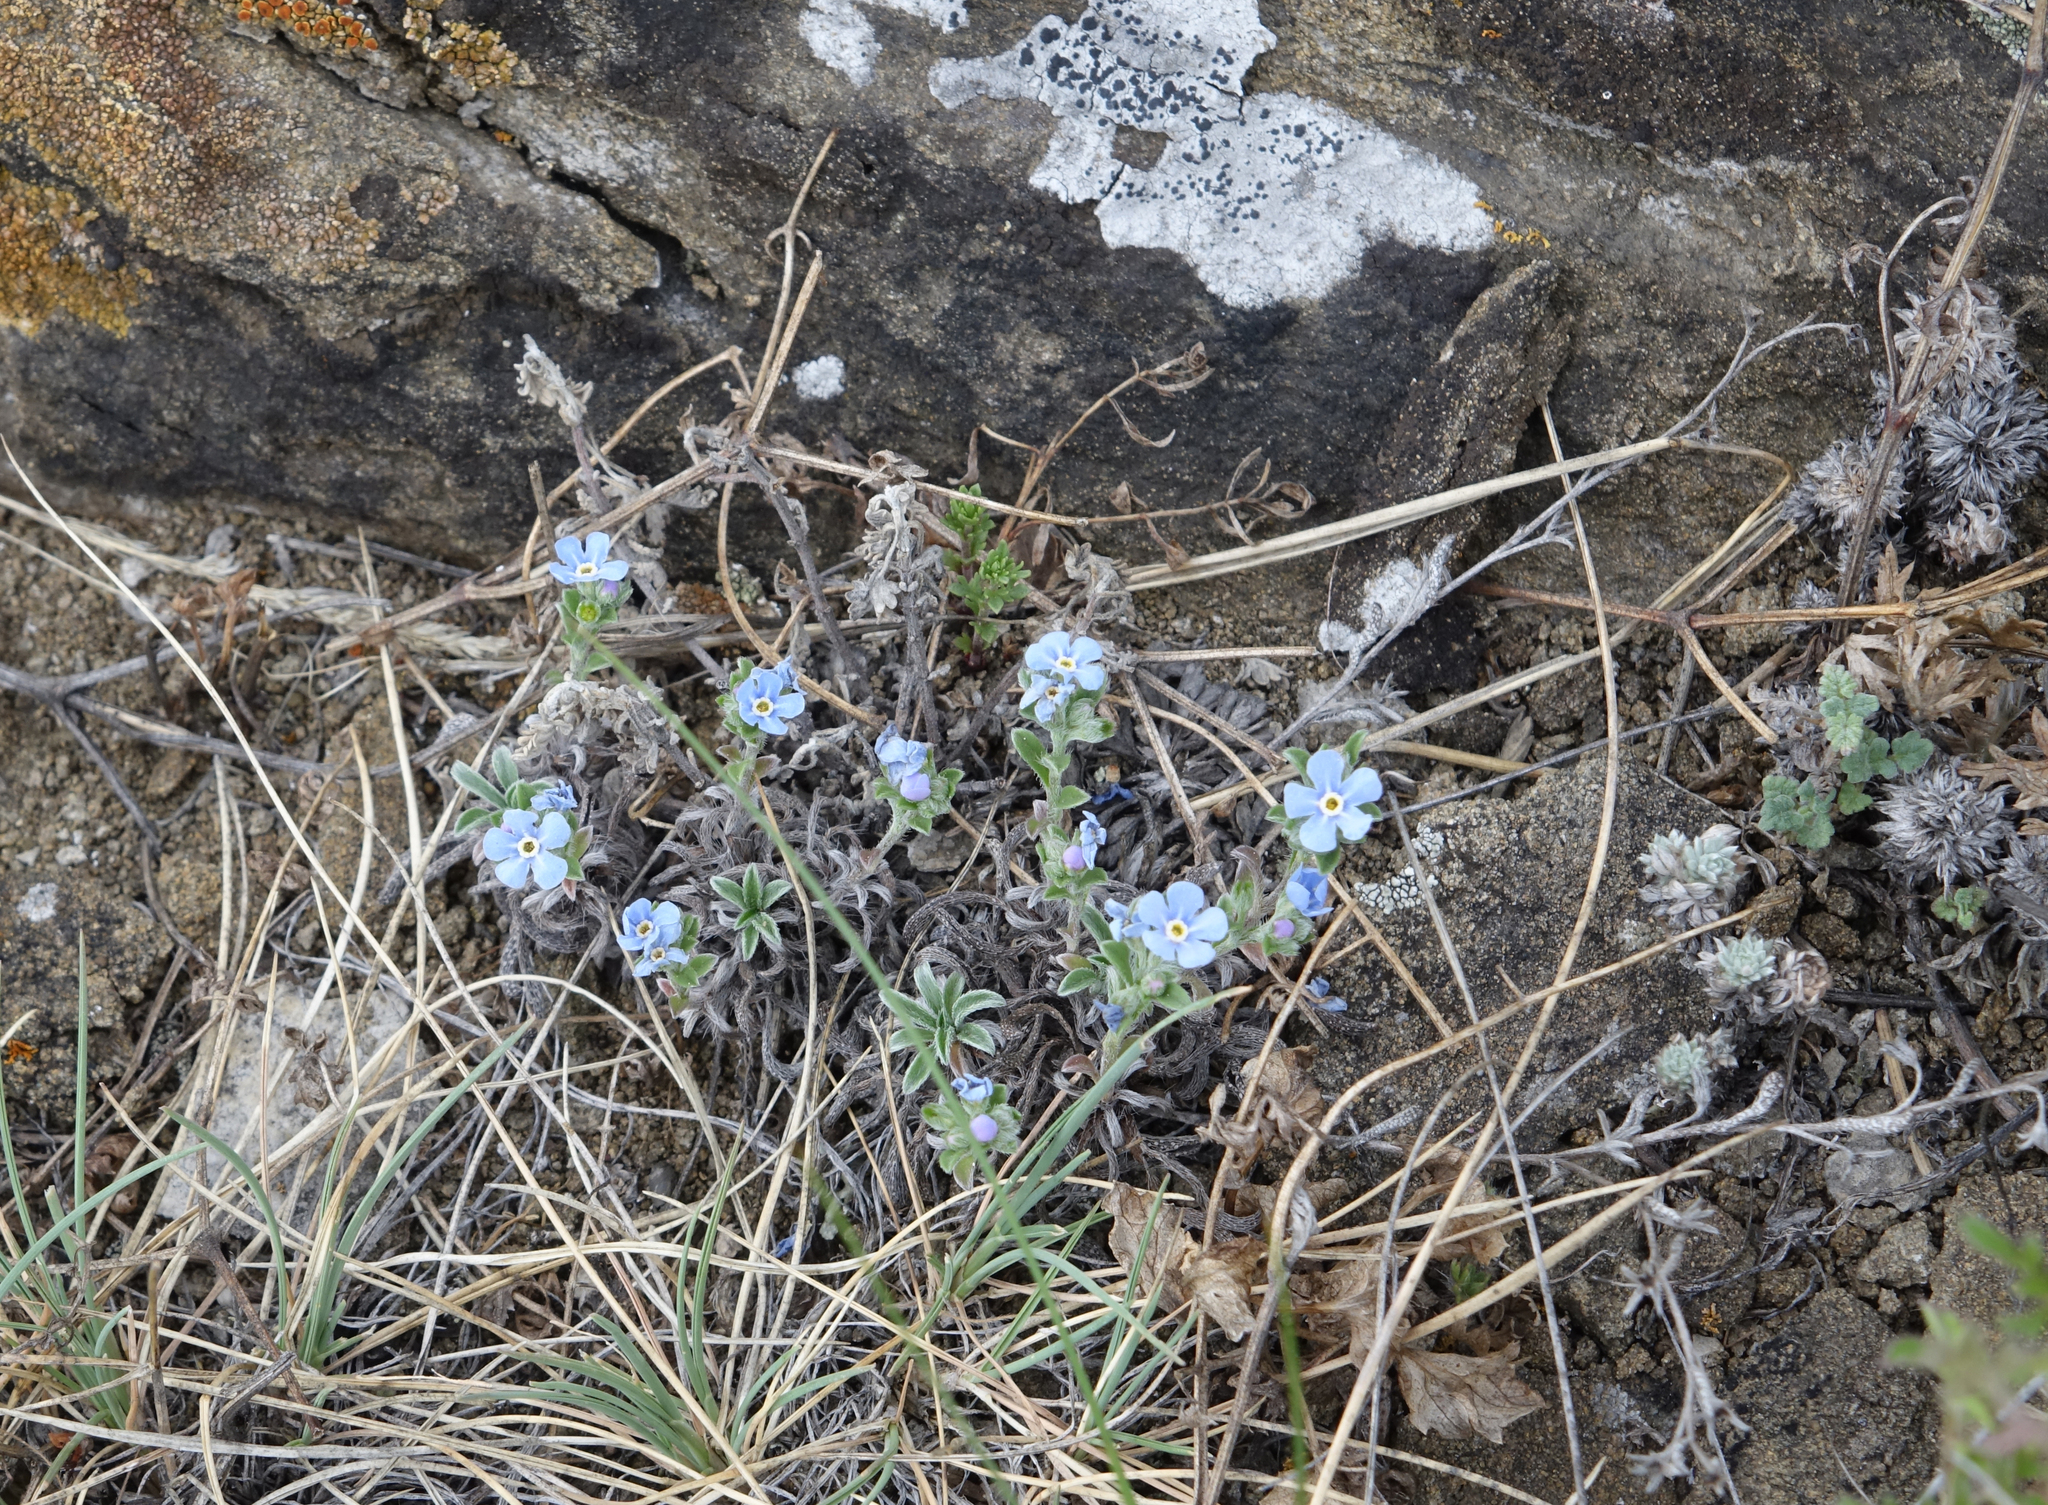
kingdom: Plantae
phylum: Tracheophyta
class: Magnoliopsida
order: Boraginales
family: Boraginaceae
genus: Eritrichium
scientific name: Eritrichium rupestre
